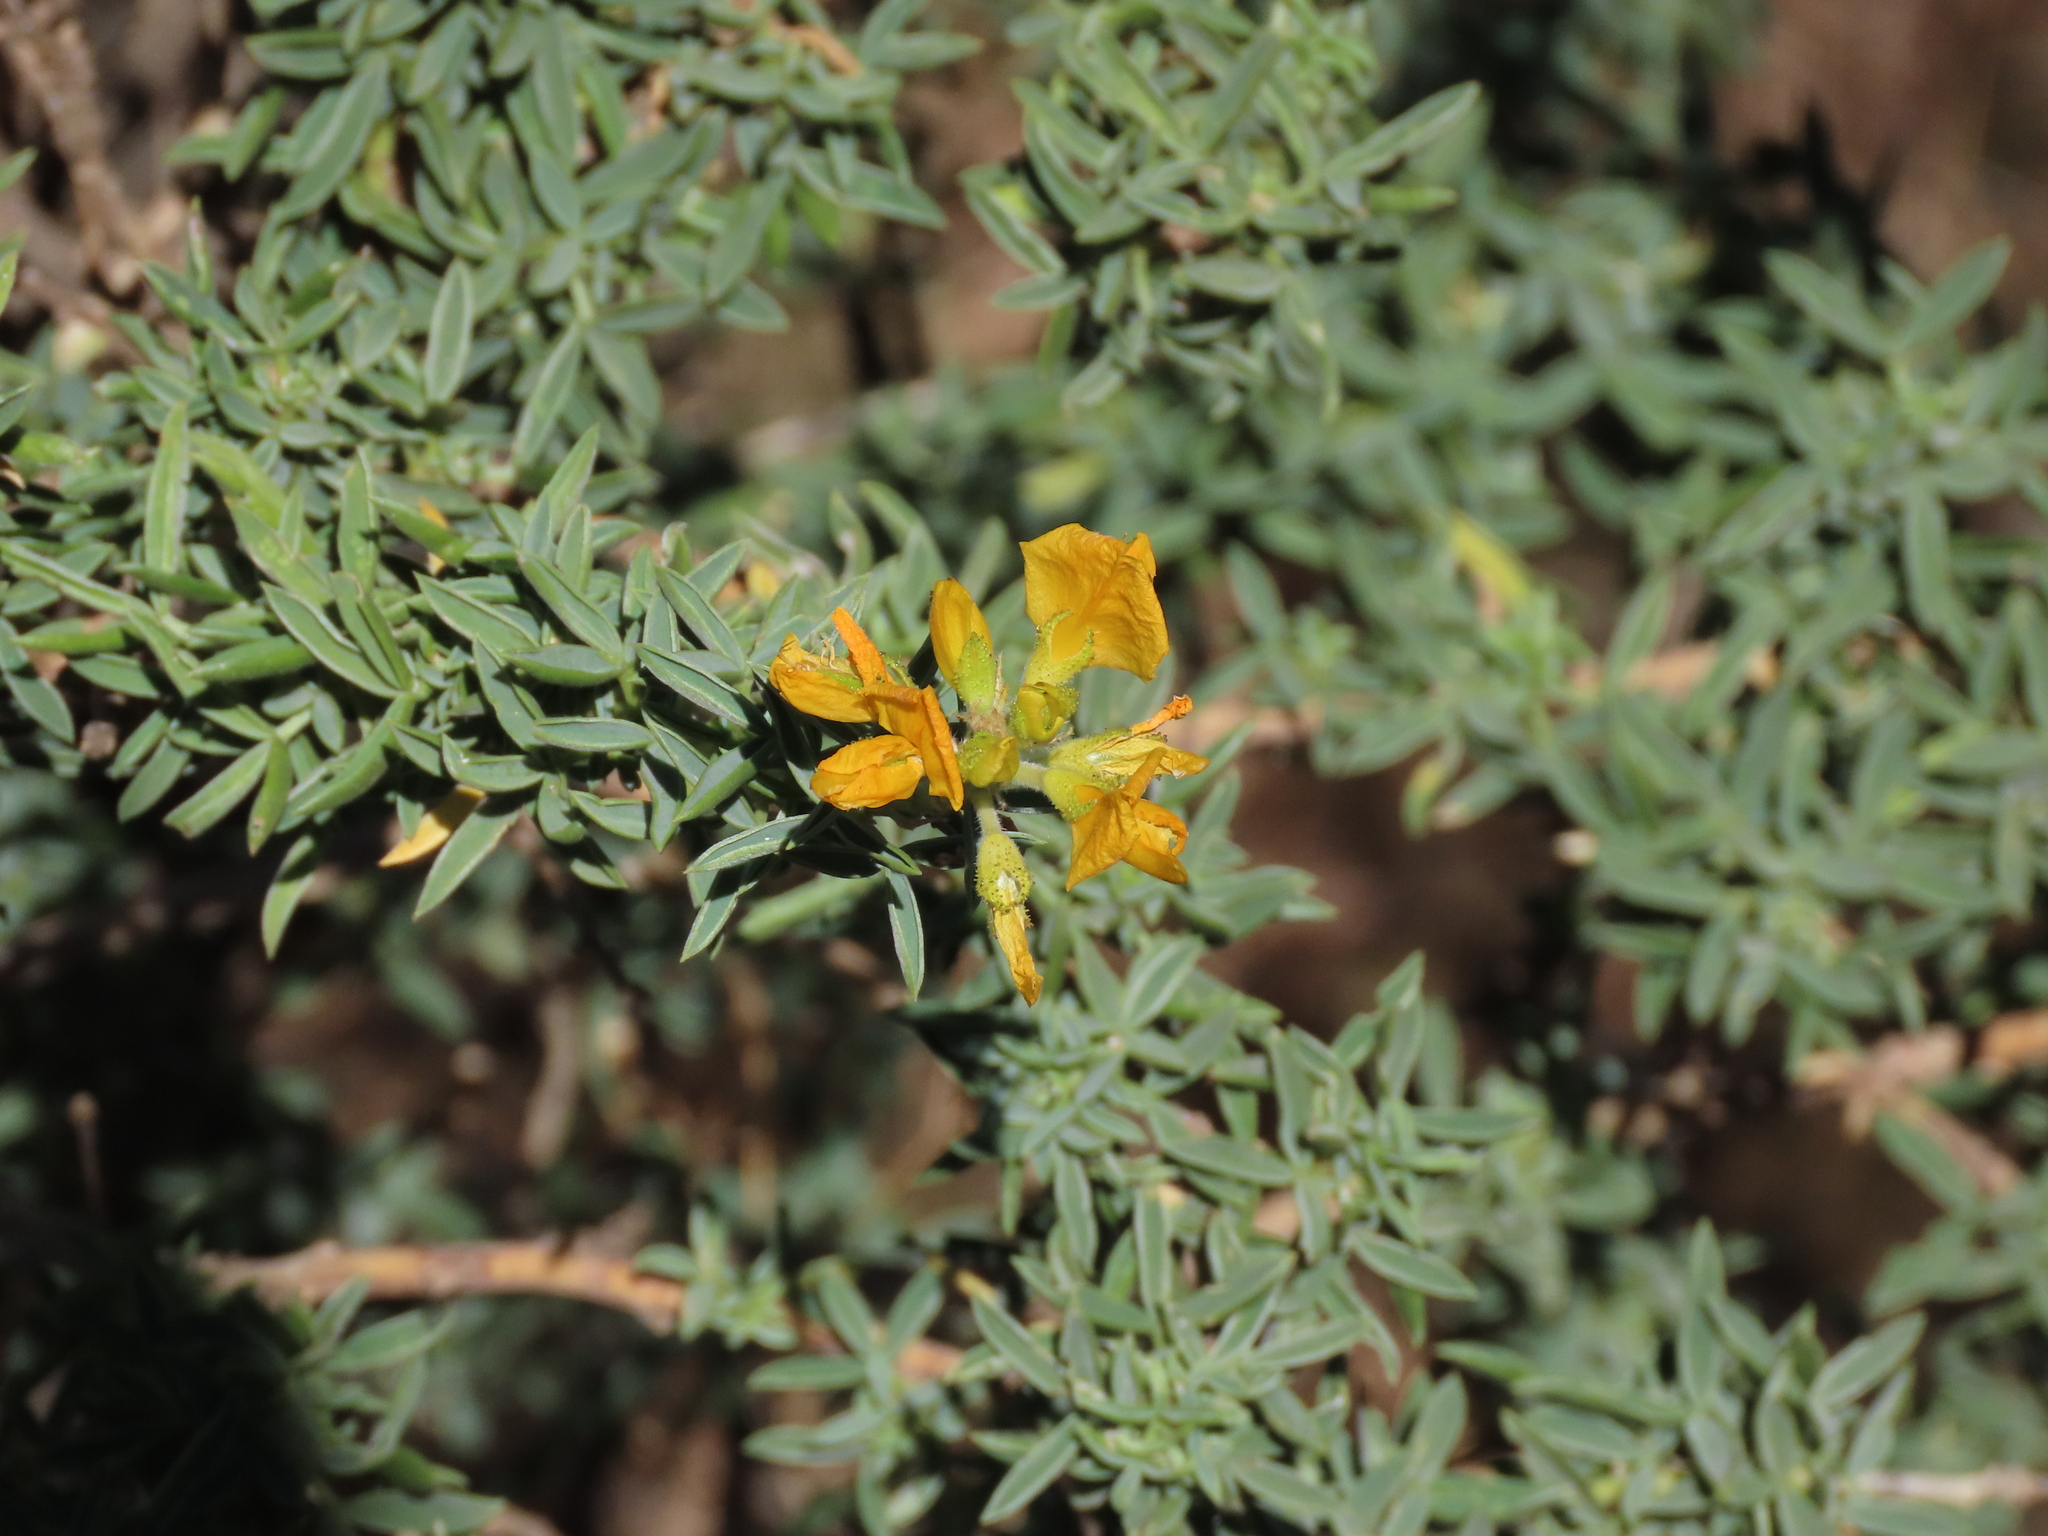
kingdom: Plantae
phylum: Tracheophyta
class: Magnoliopsida
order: Fabales
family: Fabaceae
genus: Adenocarpus
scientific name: Adenocarpus hispanicus
